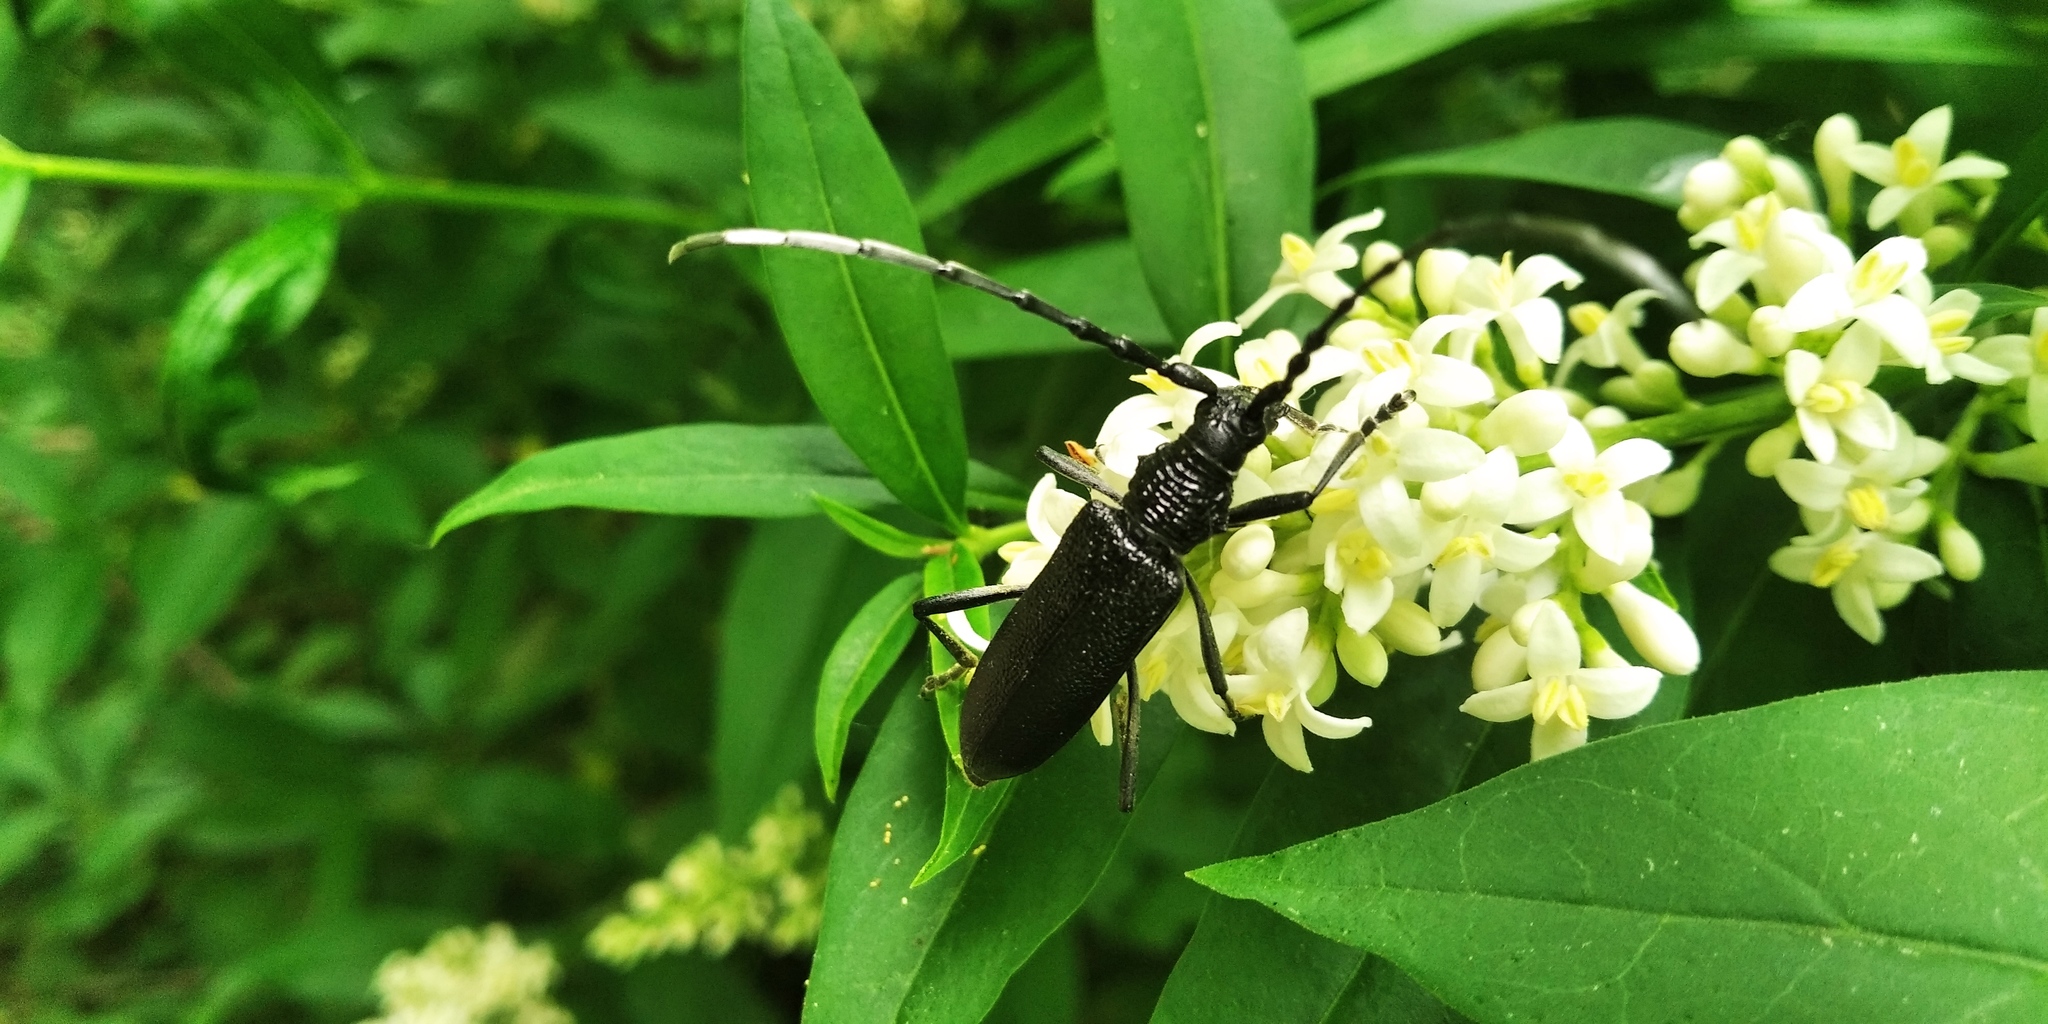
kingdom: Animalia
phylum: Arthropoda
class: Insecta
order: Coleoptera
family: Cerambycidae
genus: Cerambyx
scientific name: Cerambyx scopolii
